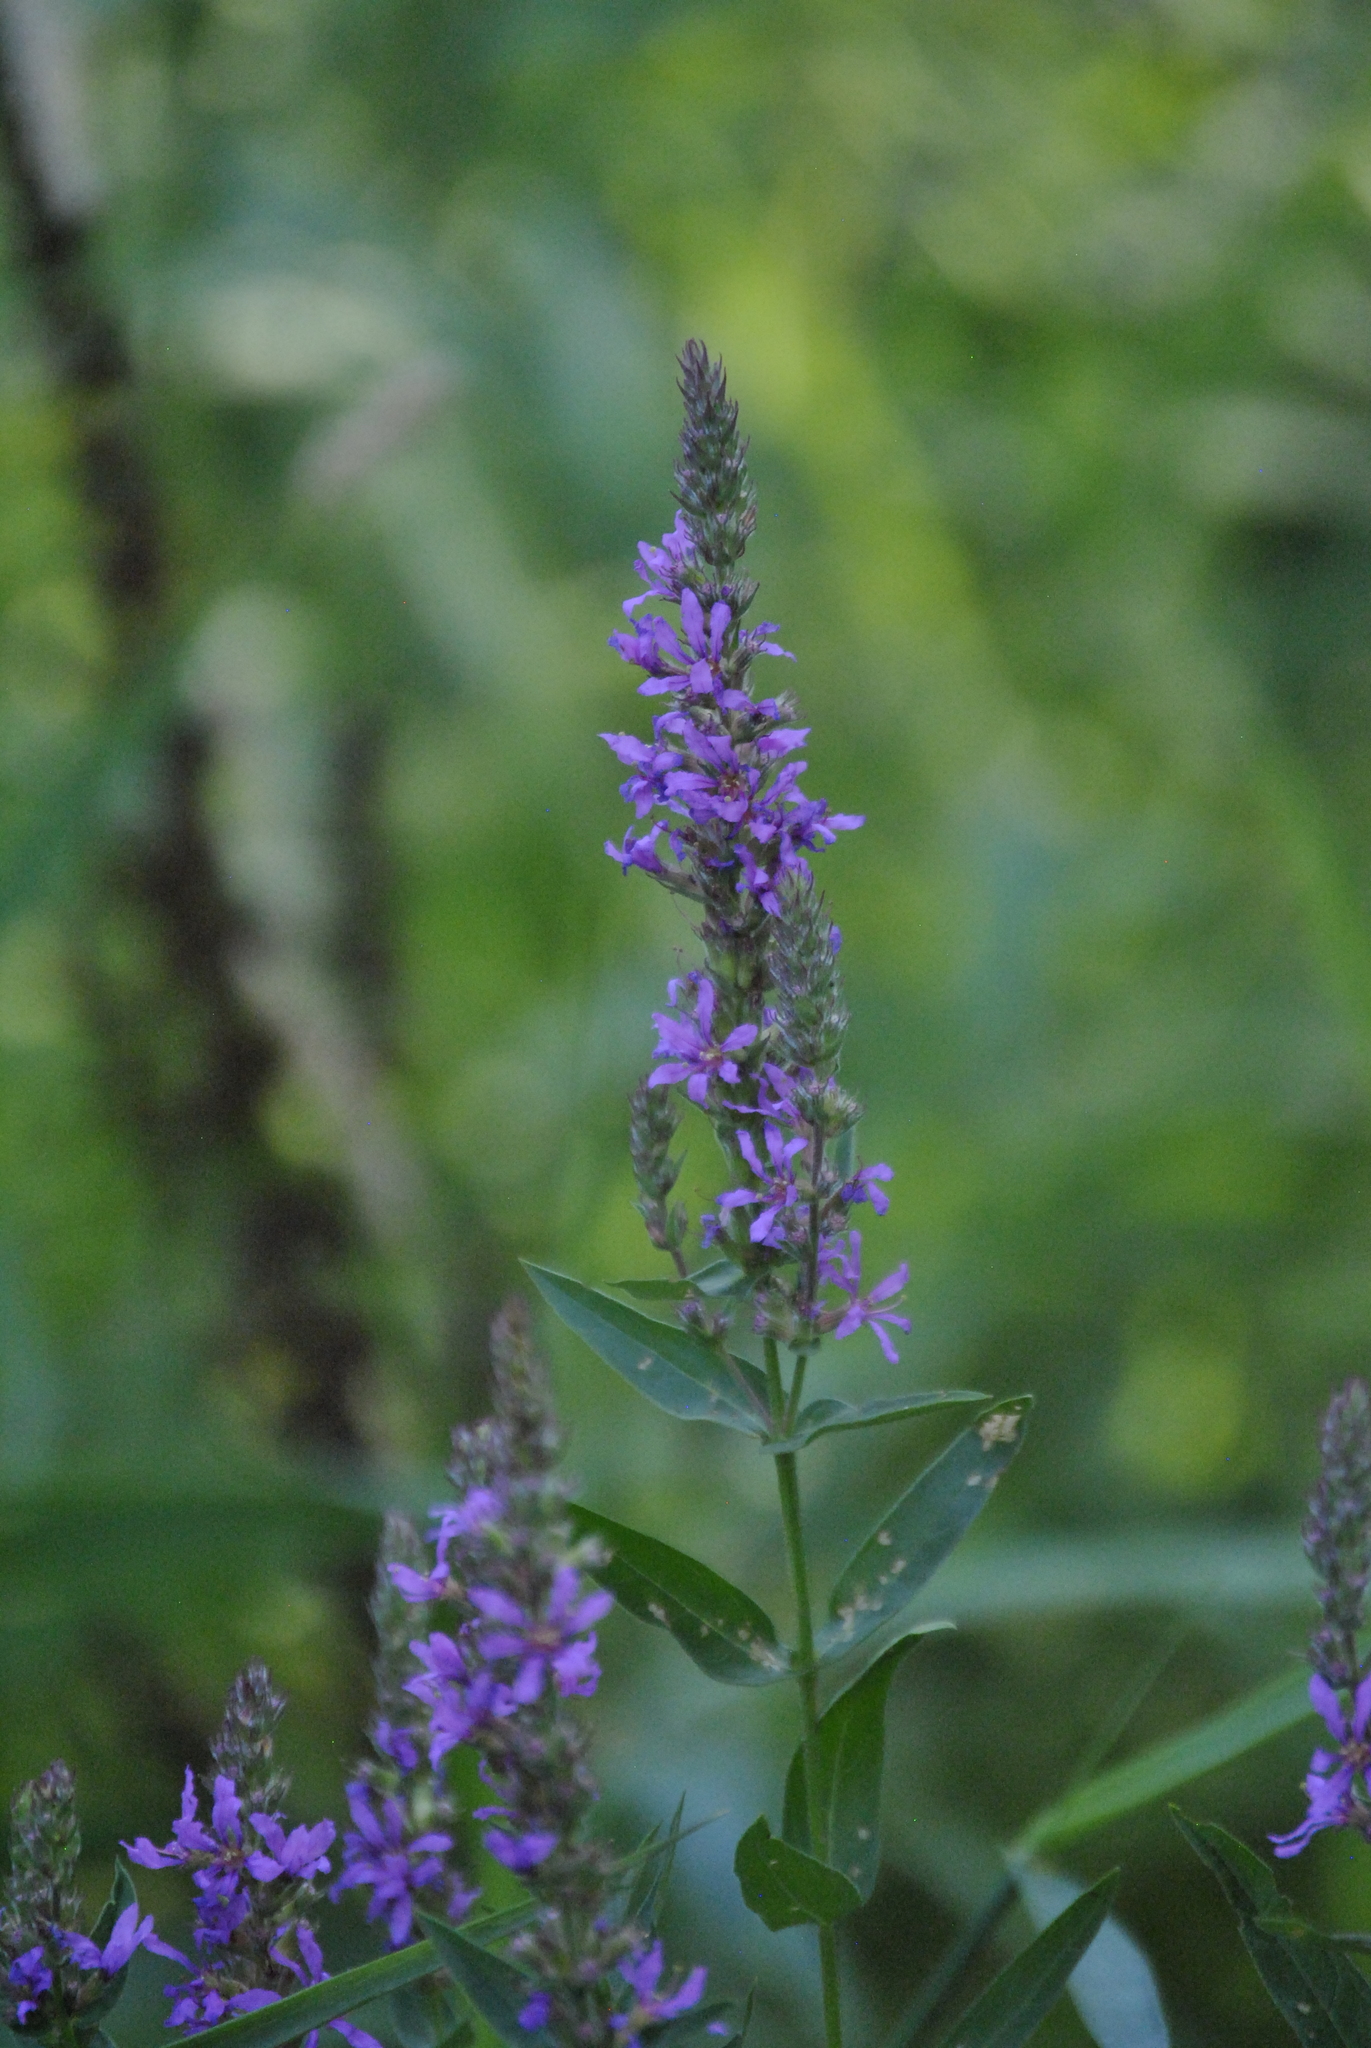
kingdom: Plantae
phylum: Tracheophyta
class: Magnoliopsida
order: Myrtales
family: Lythraceae
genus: Lythrum
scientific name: Lythrum salicaria
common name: Purple loosestrife
